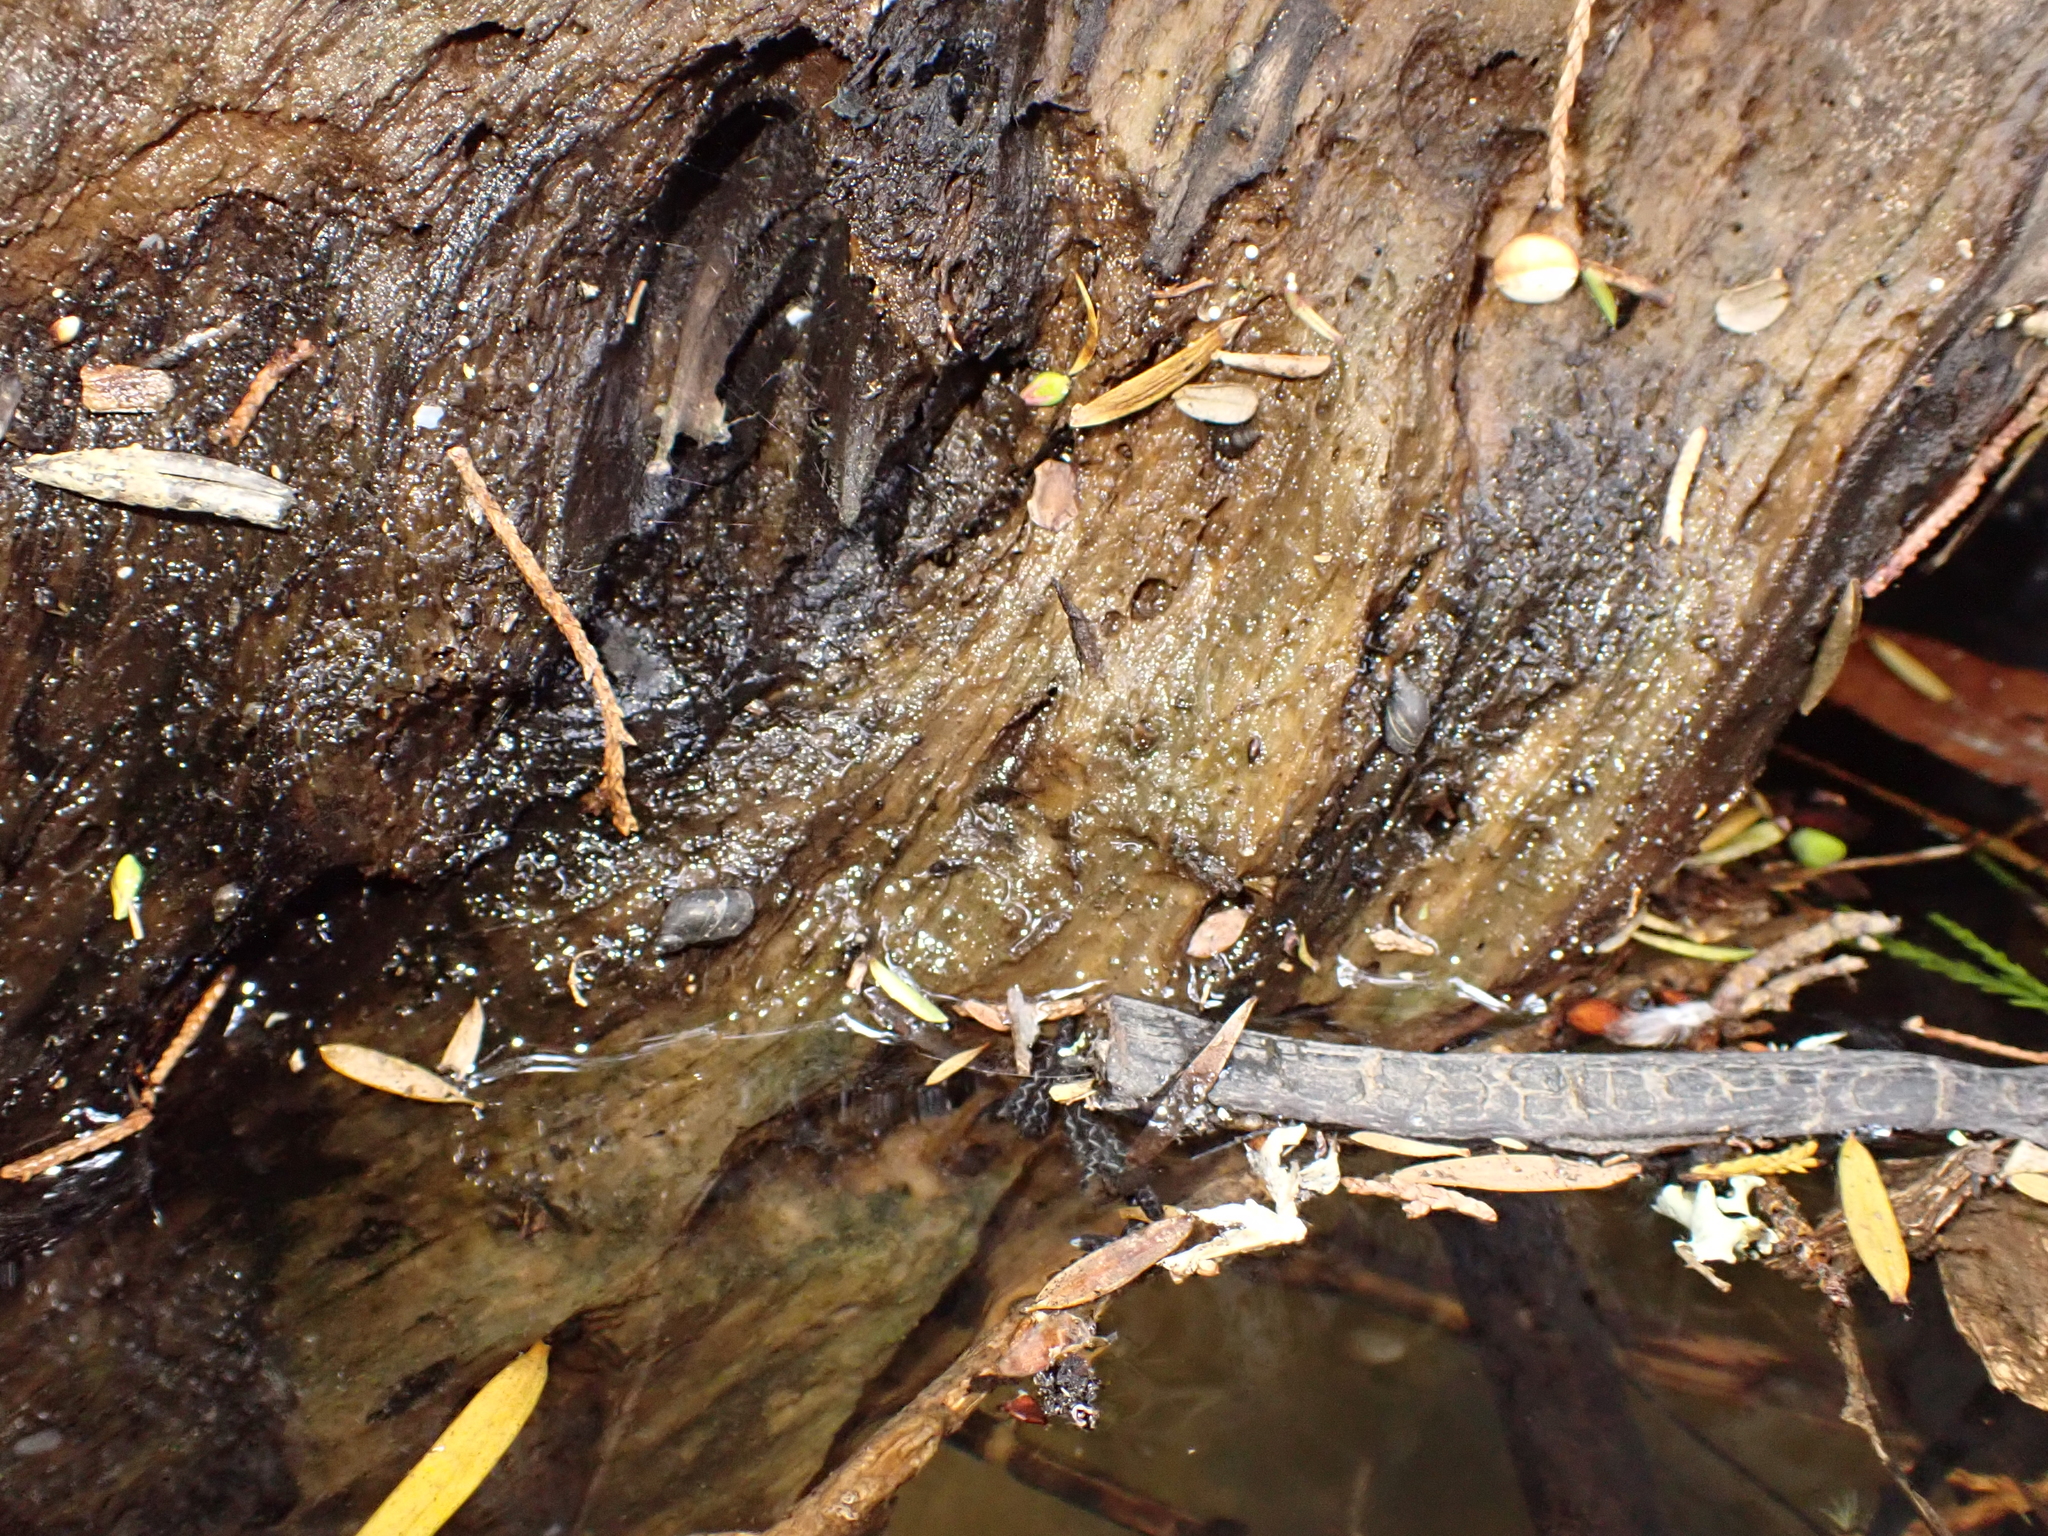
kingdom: Animalia
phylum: Mollusca
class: Gastropoda
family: Lymnaeidae
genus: Pseudosuccinea
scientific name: Pseudosuccinea columella
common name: Mimic lymnaea
